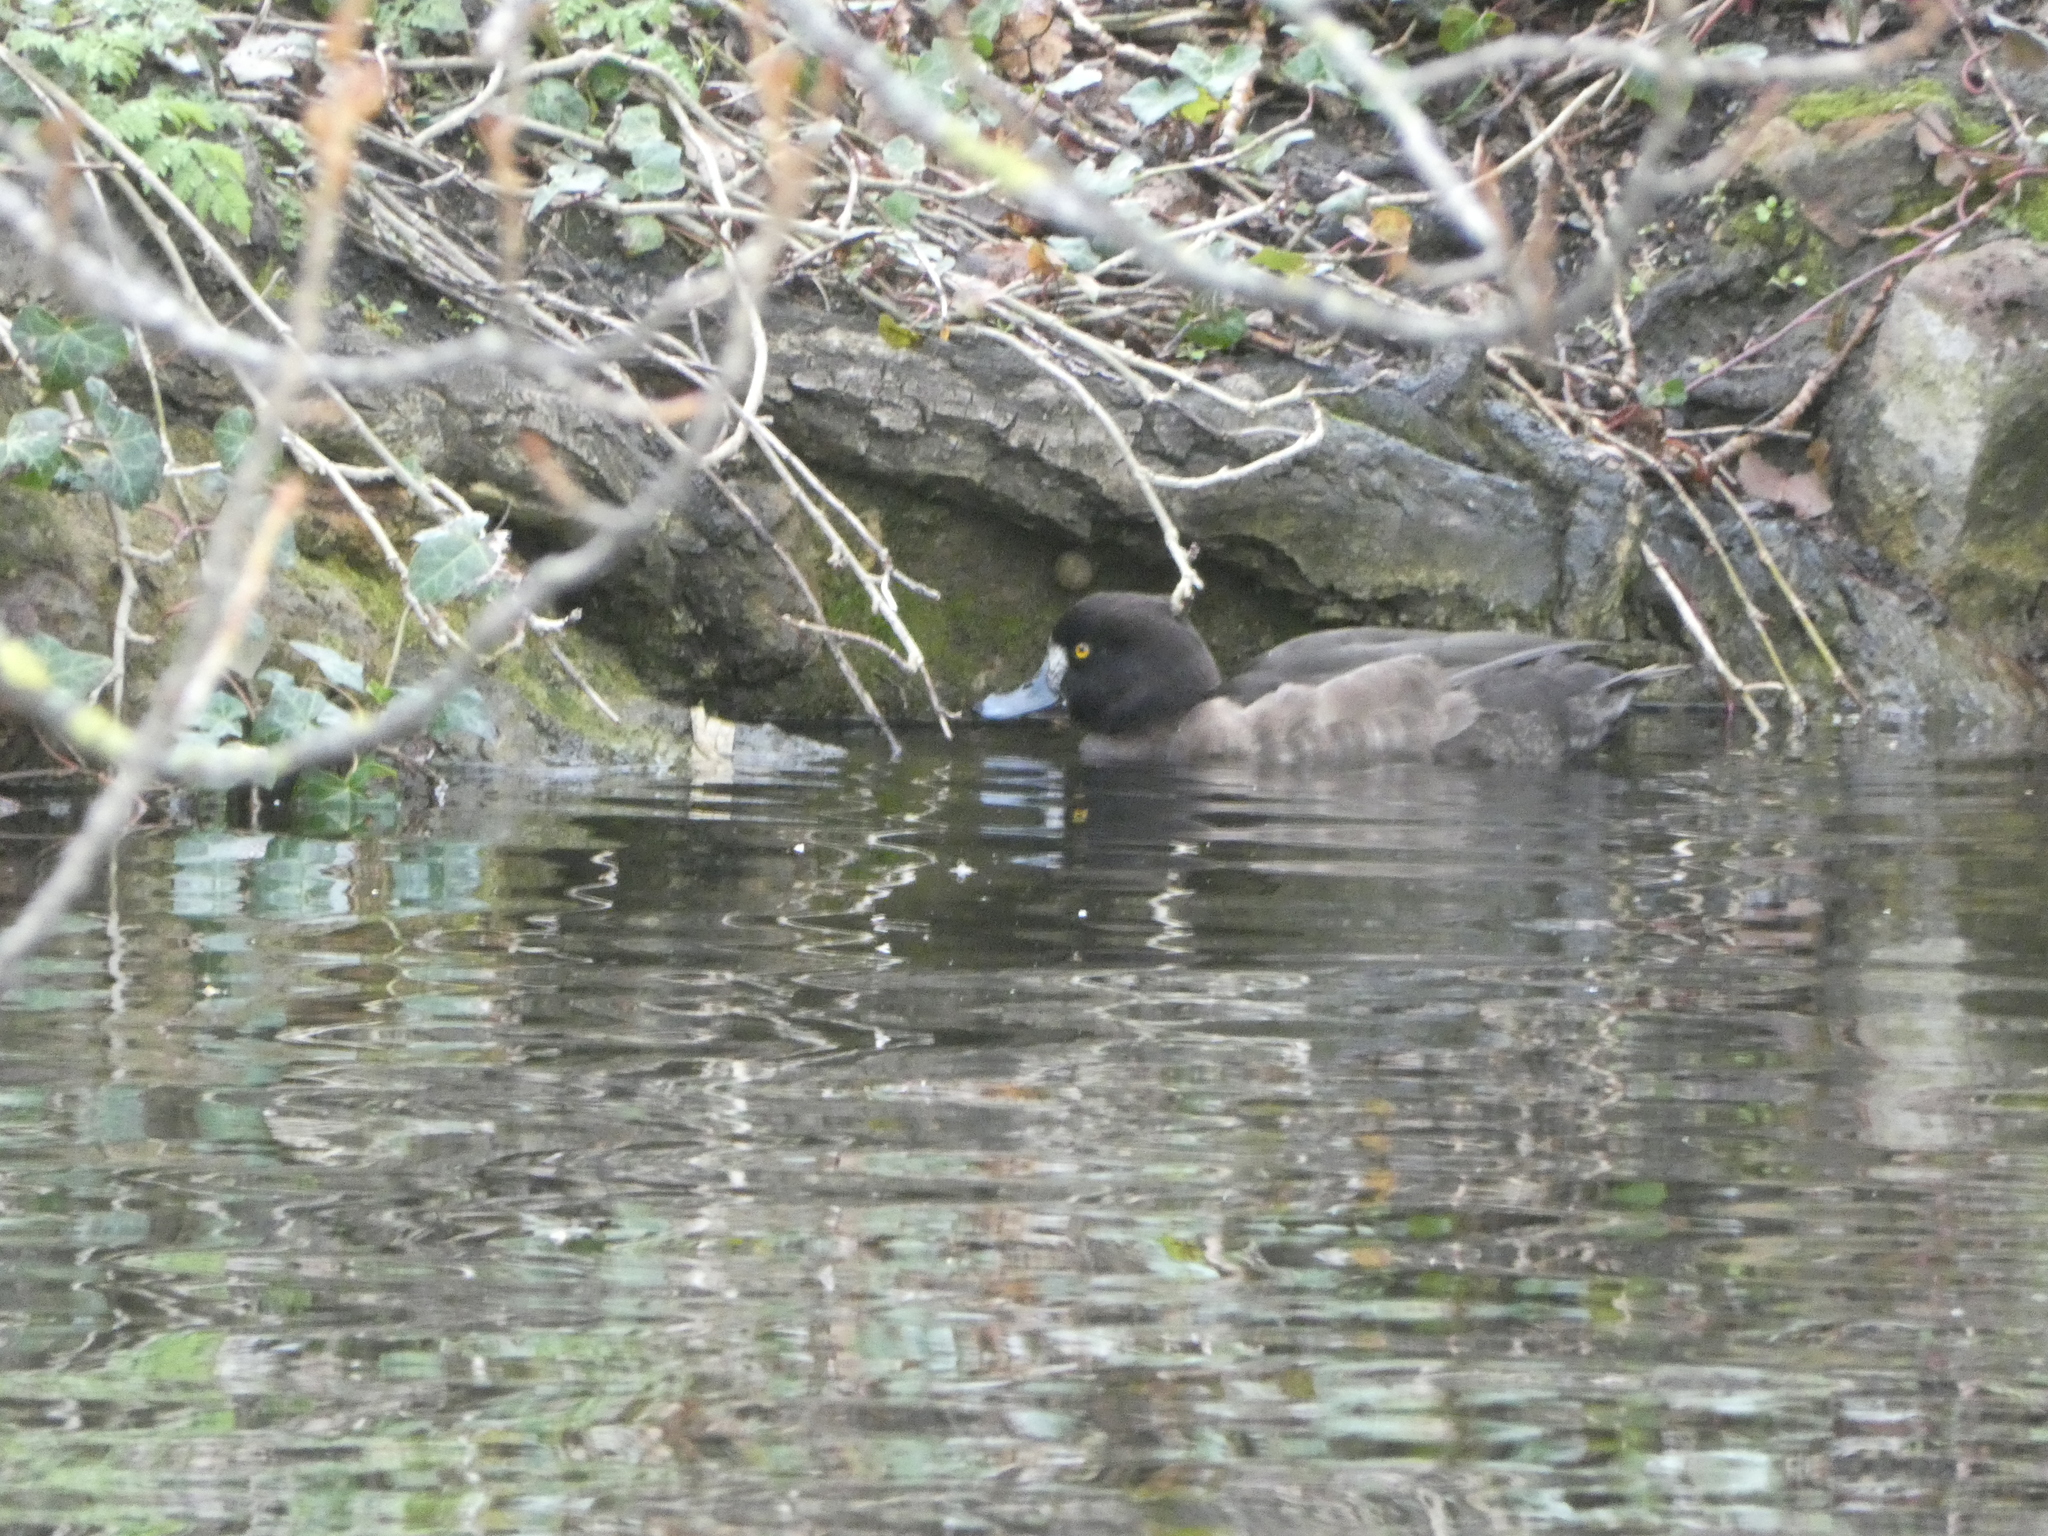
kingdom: Animalia
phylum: Chordata
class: Aves
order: Anseriformes
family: Anatidae
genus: Aythya
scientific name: Aythya fuligula
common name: Tufted duck
